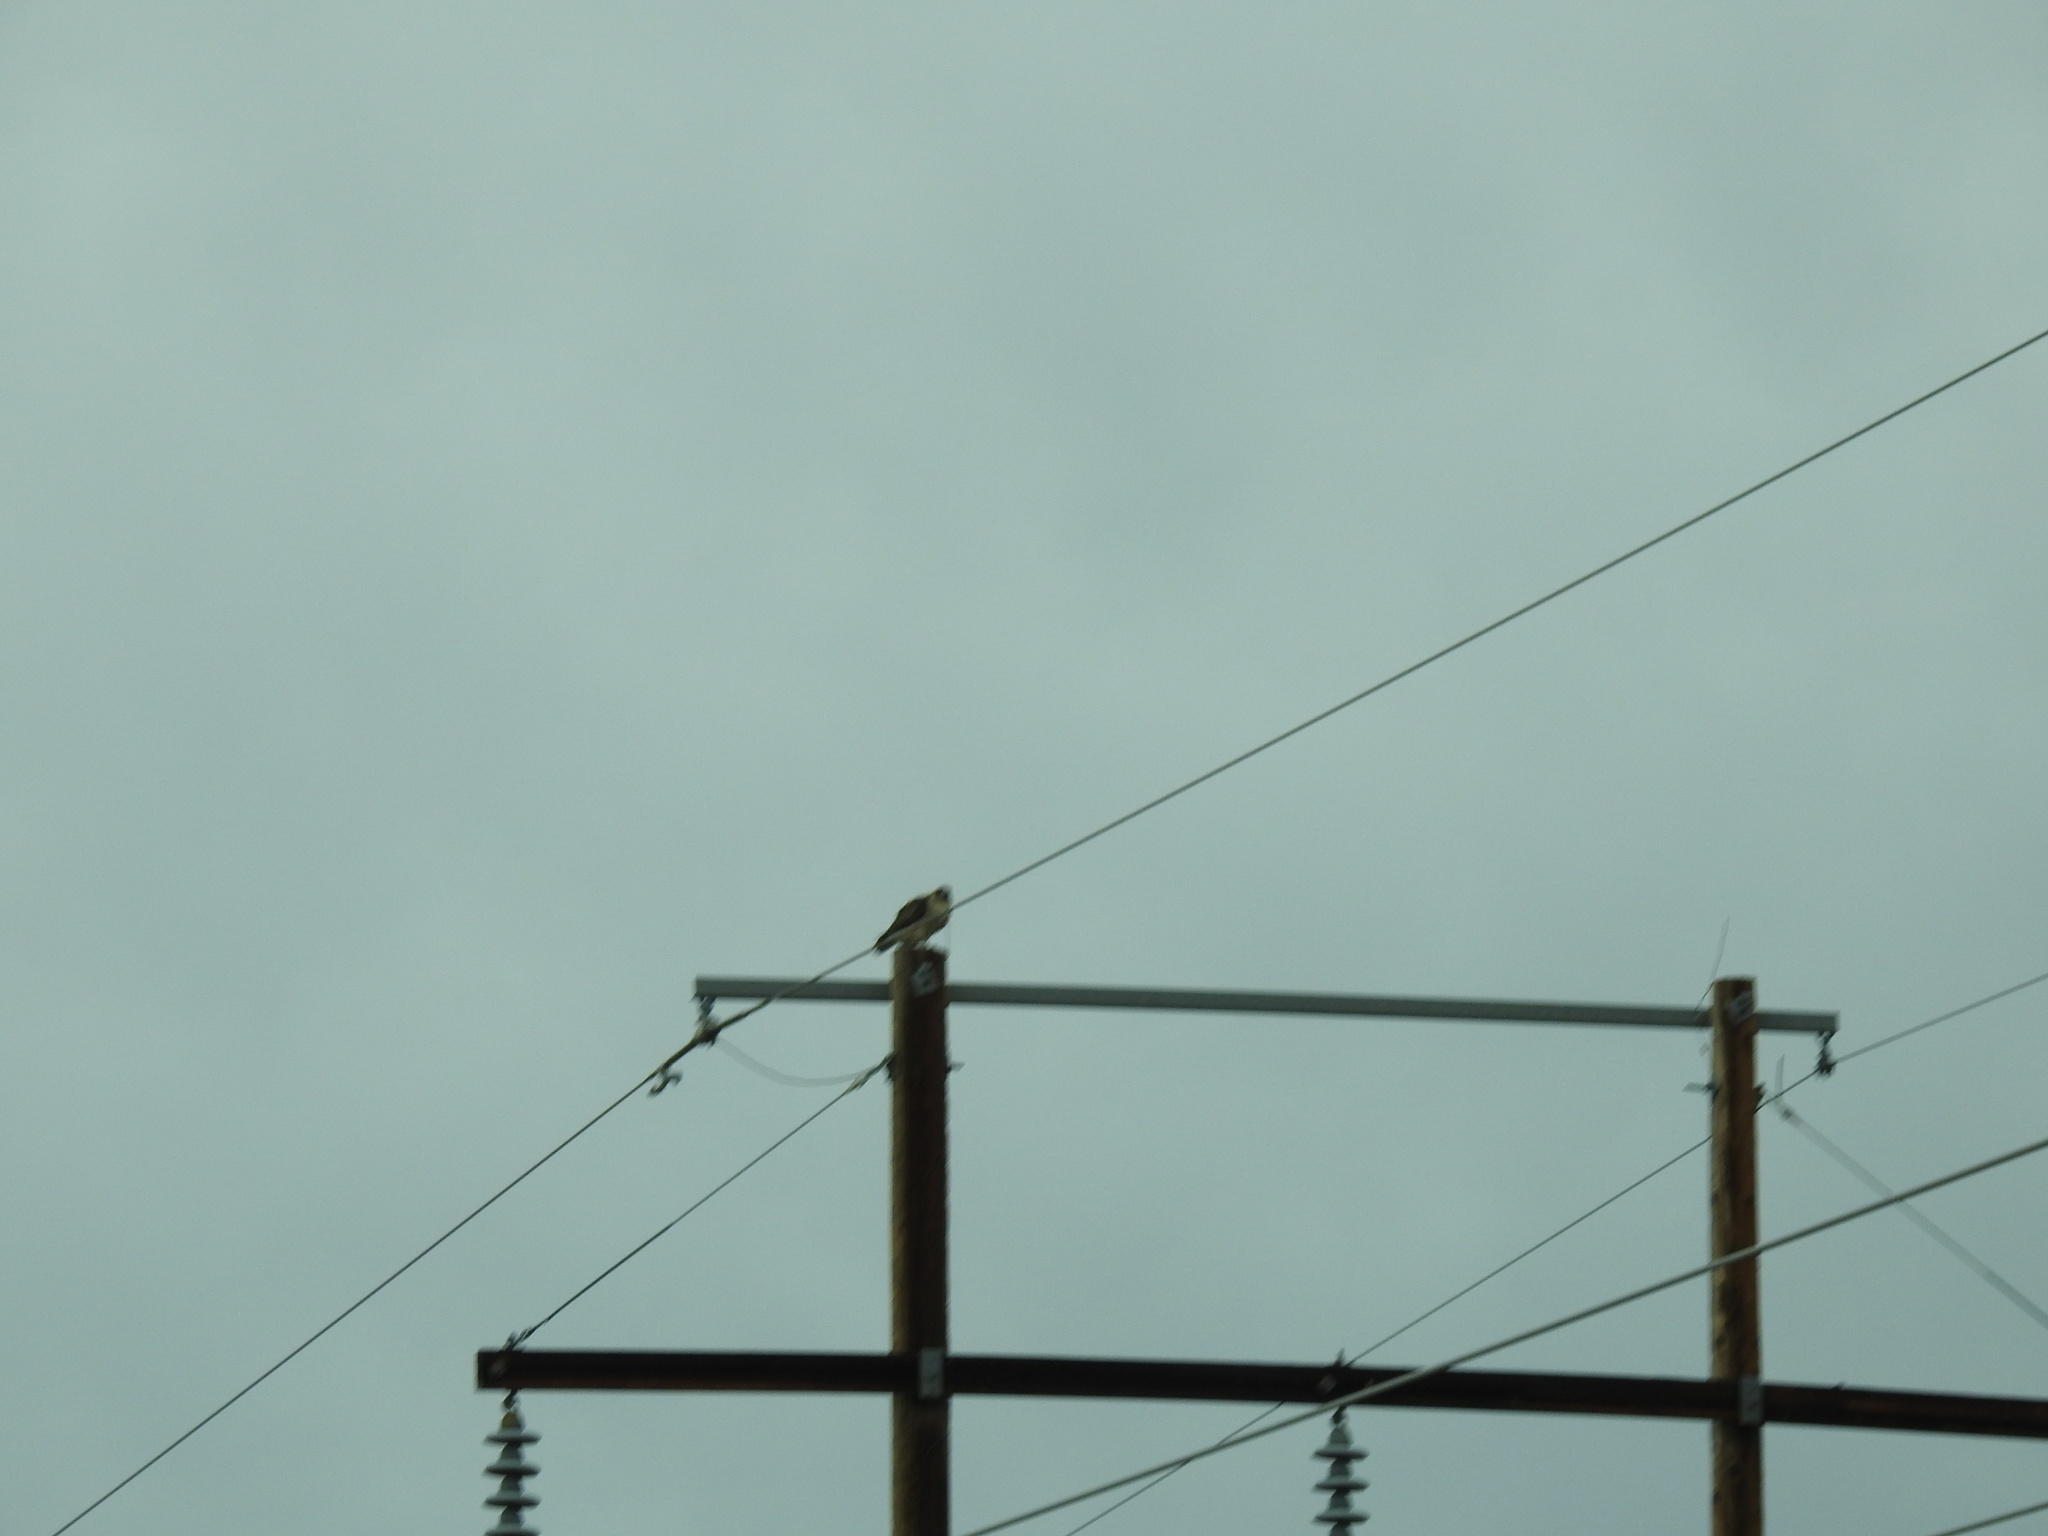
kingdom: Animalia
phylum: Chordata
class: Aves
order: Accipitriformes
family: Accipitridae
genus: Buteo
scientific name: Buteo jamaicensis
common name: Red-tailed hawk
